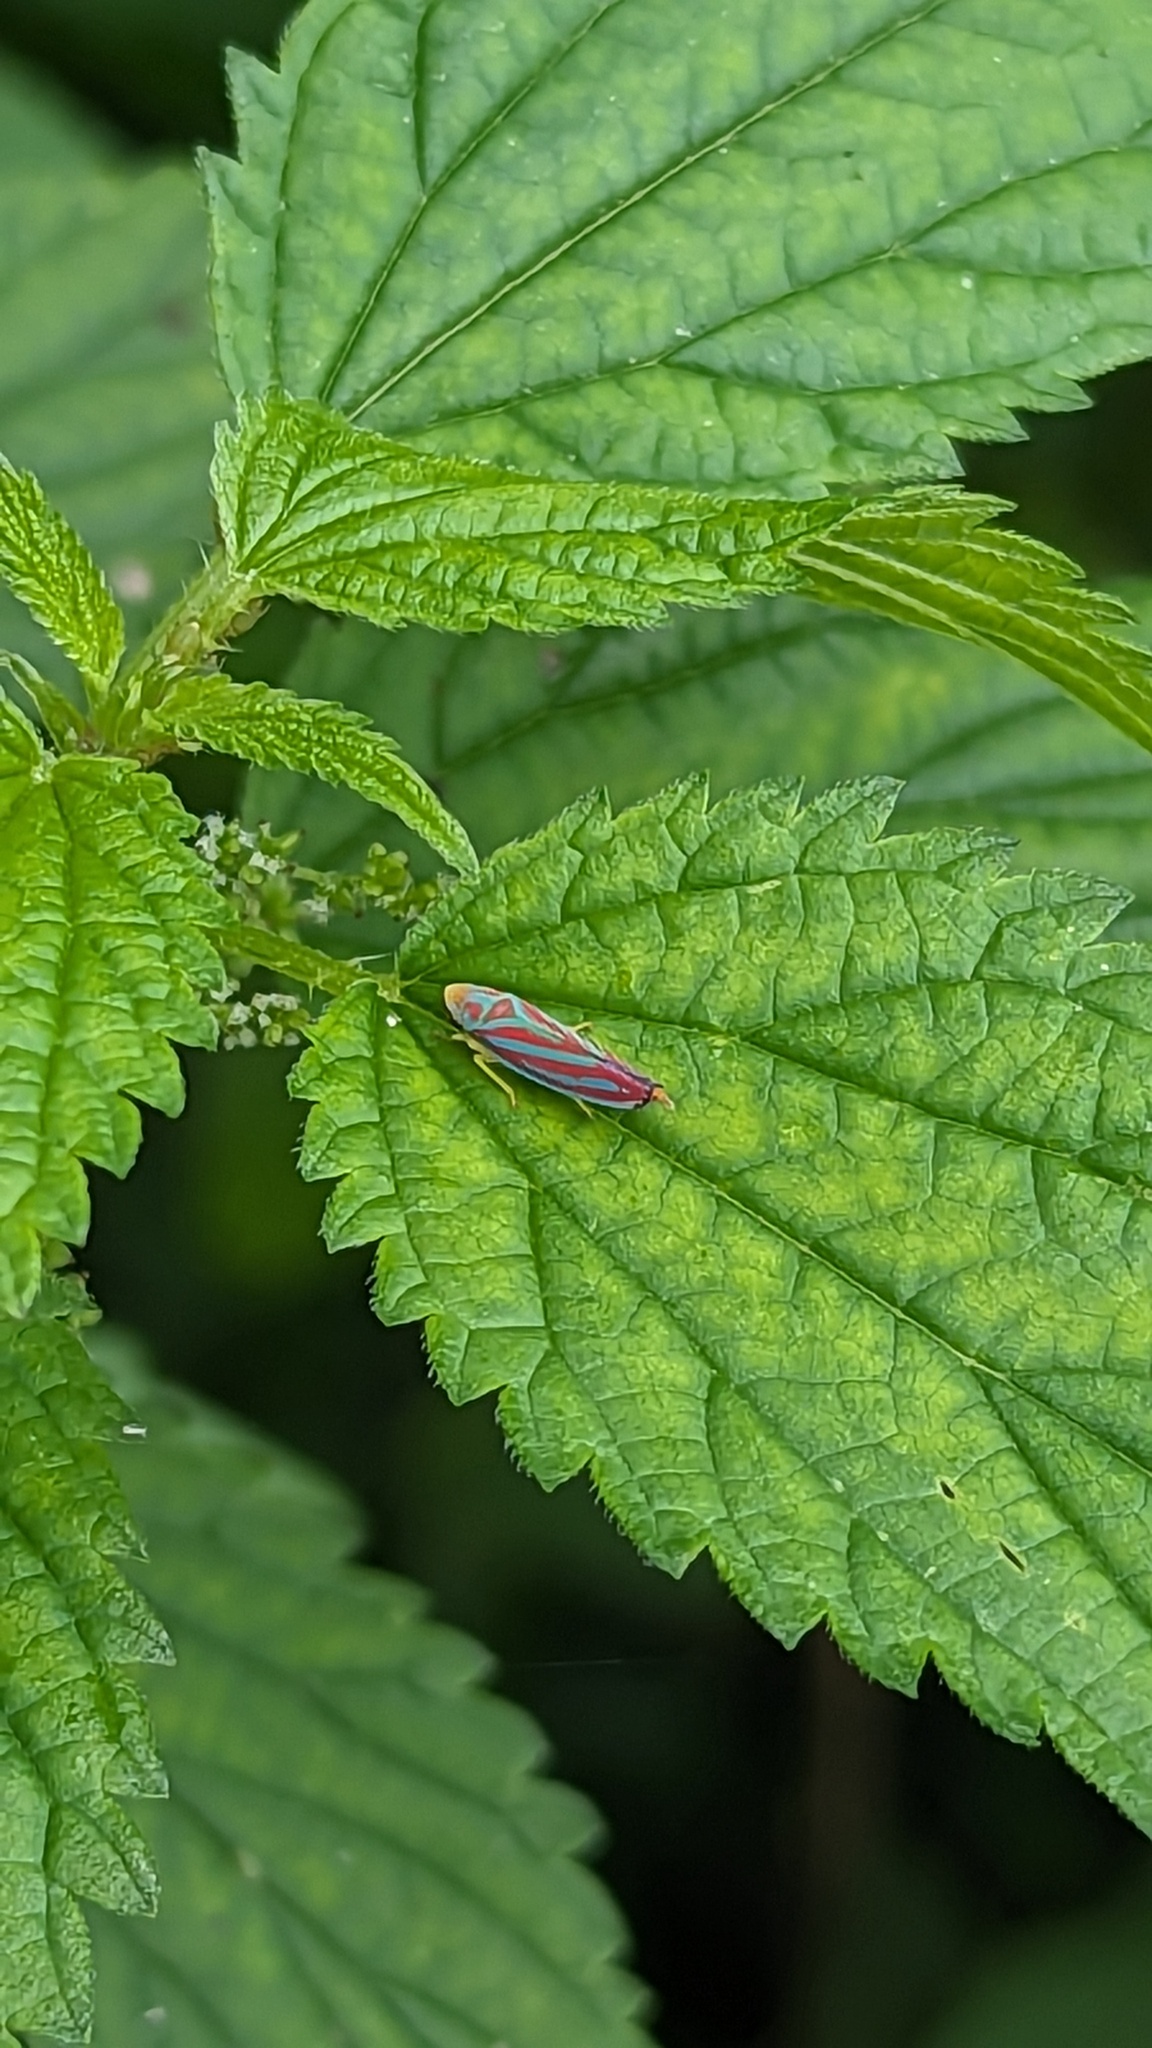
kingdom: Animalia
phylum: Arthropoda
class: Insecta
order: Hemiptera
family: Cicadellidae
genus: Graphocephala
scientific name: Graphocephala coccinea
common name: Candy-striped leafhopper
